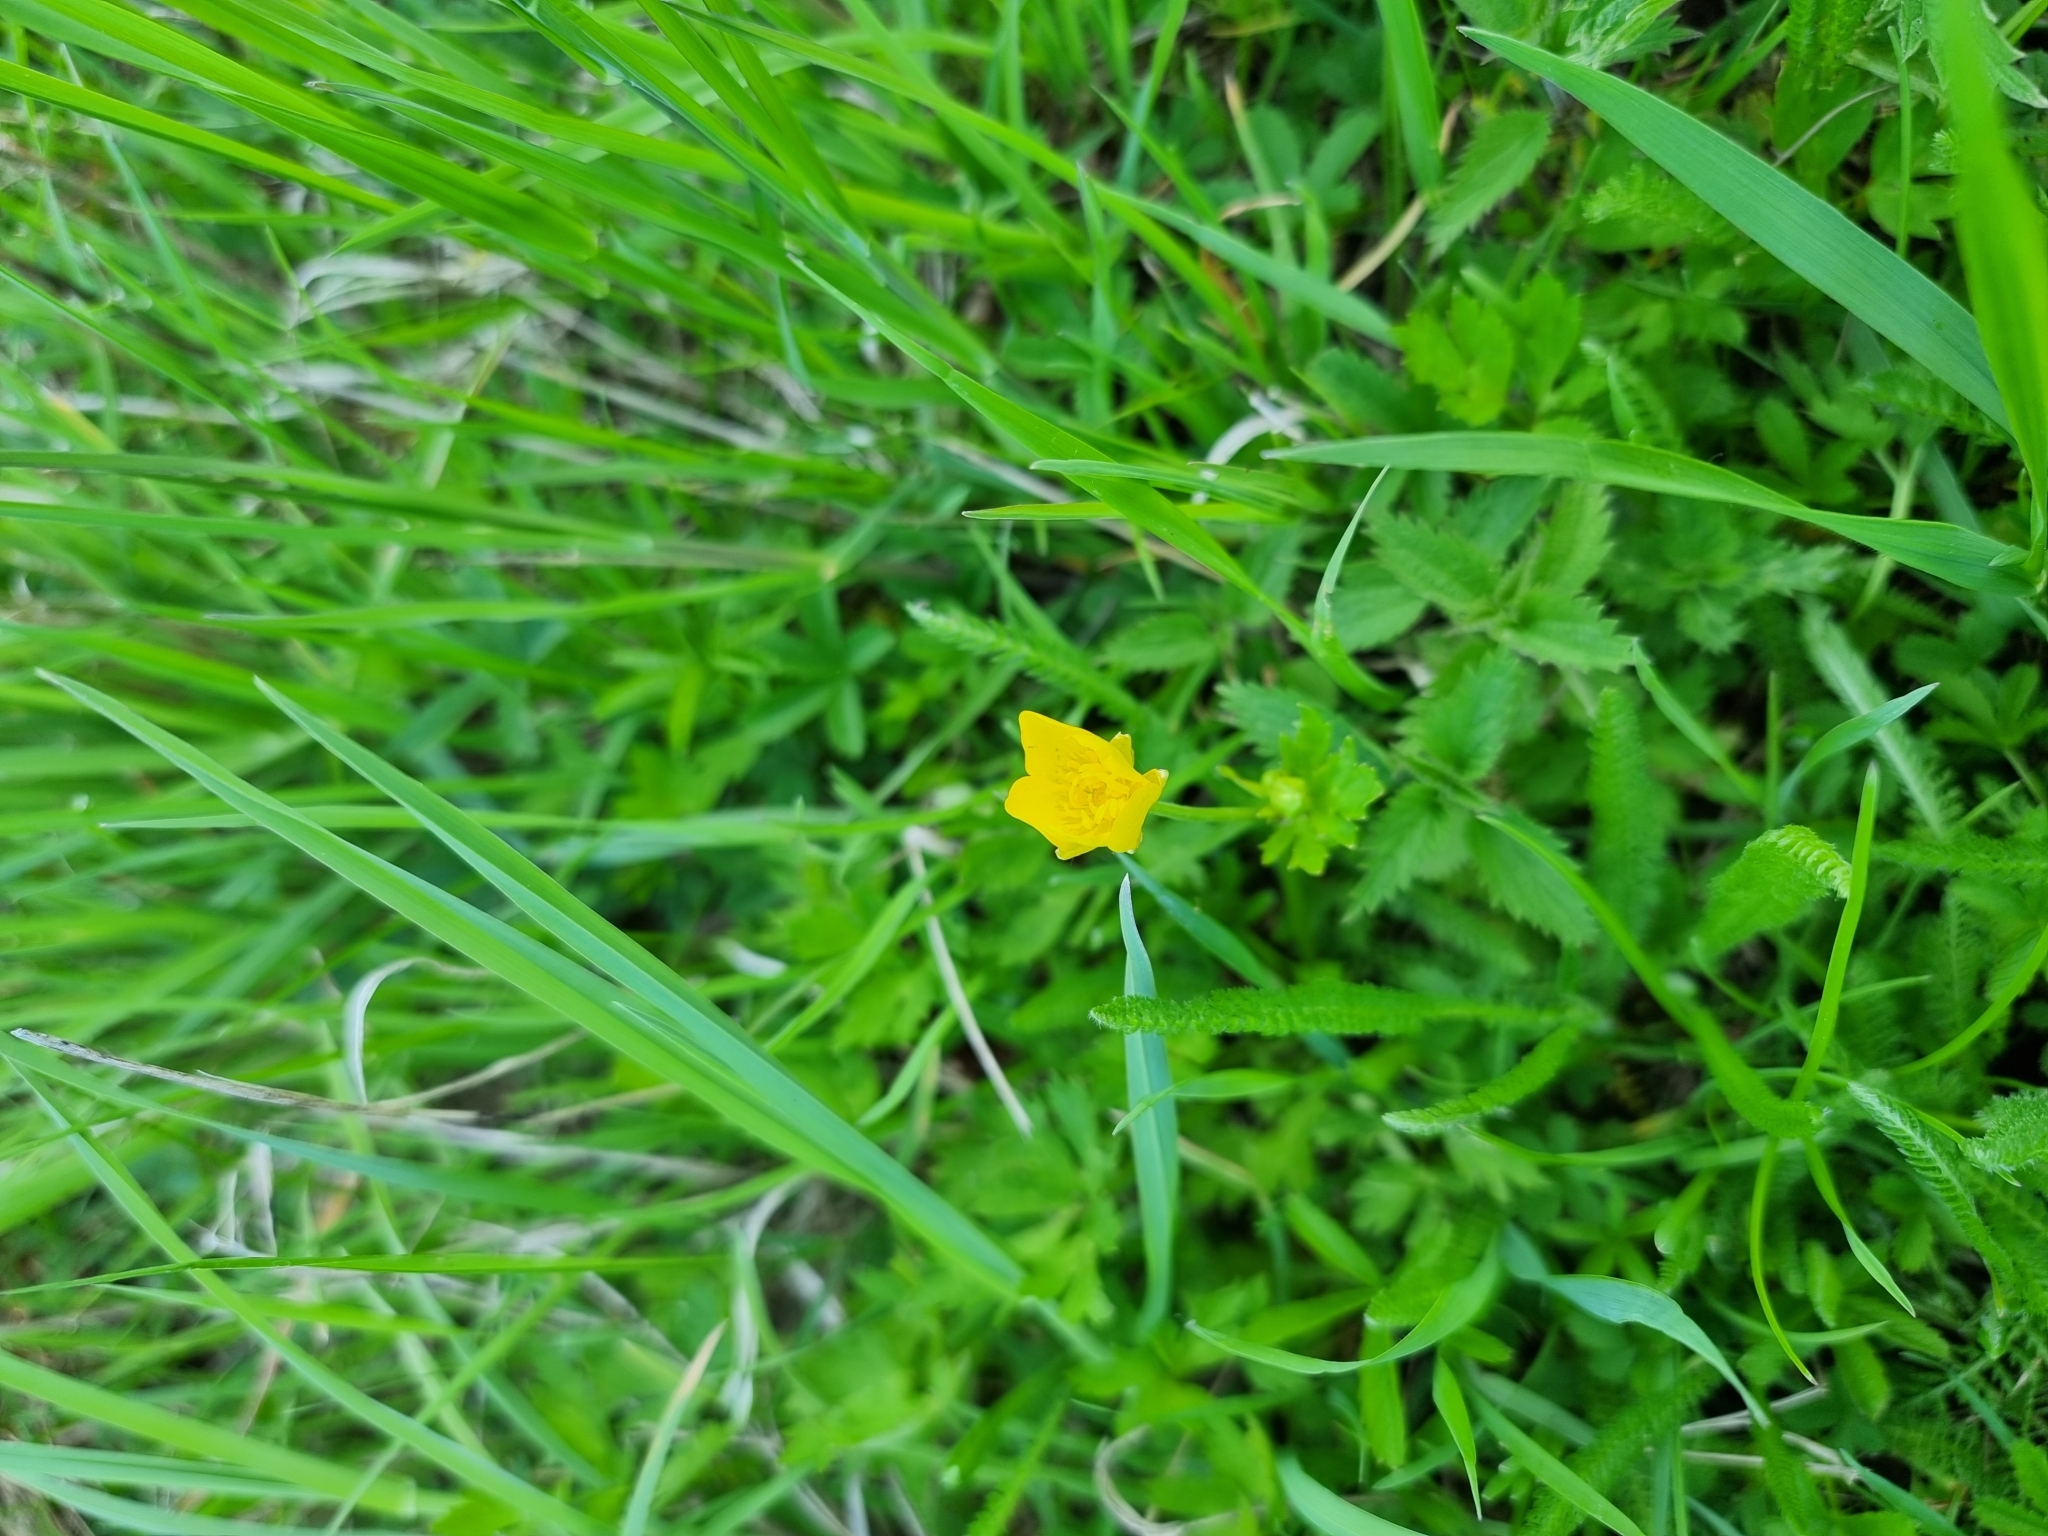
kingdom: Plantae
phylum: Tracheophyta
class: Magnoliopsida
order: Ranunculales
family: Ranunculaceae
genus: Ranunculus
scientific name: Ranunculus repens
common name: Creeping buttercup
